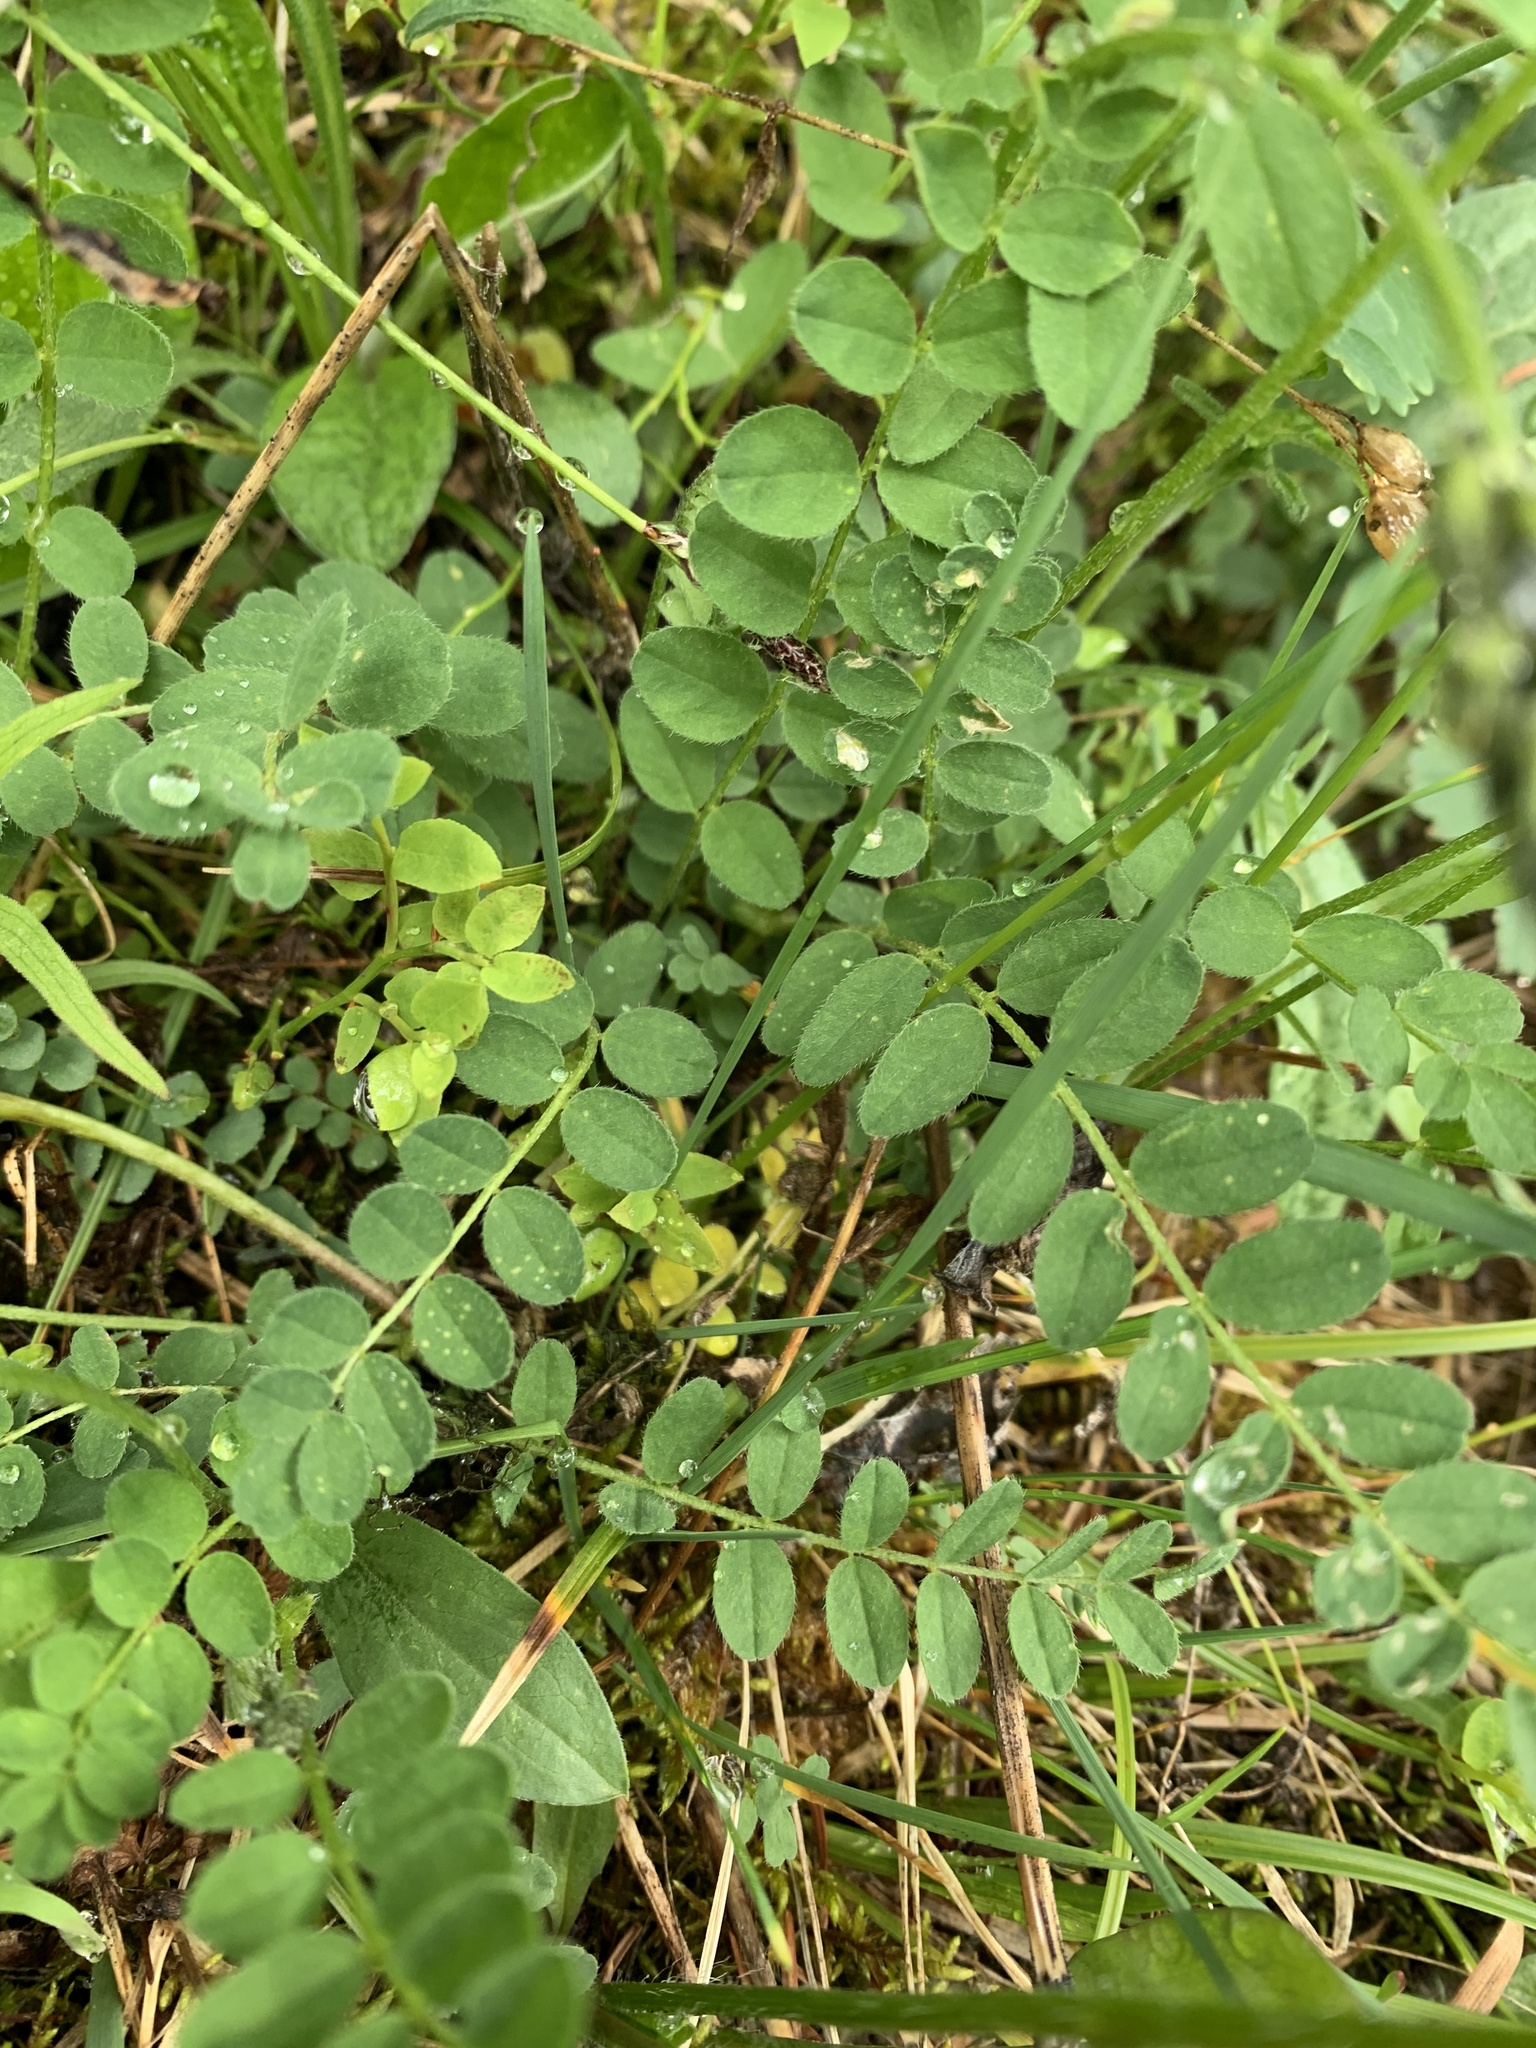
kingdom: Plantae
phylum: Tracheophyta
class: Magnoliopsida
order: Fabales
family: Fabaceae
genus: Astragalus
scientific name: Astragalus alpinus
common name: Alpine milk-vetch
